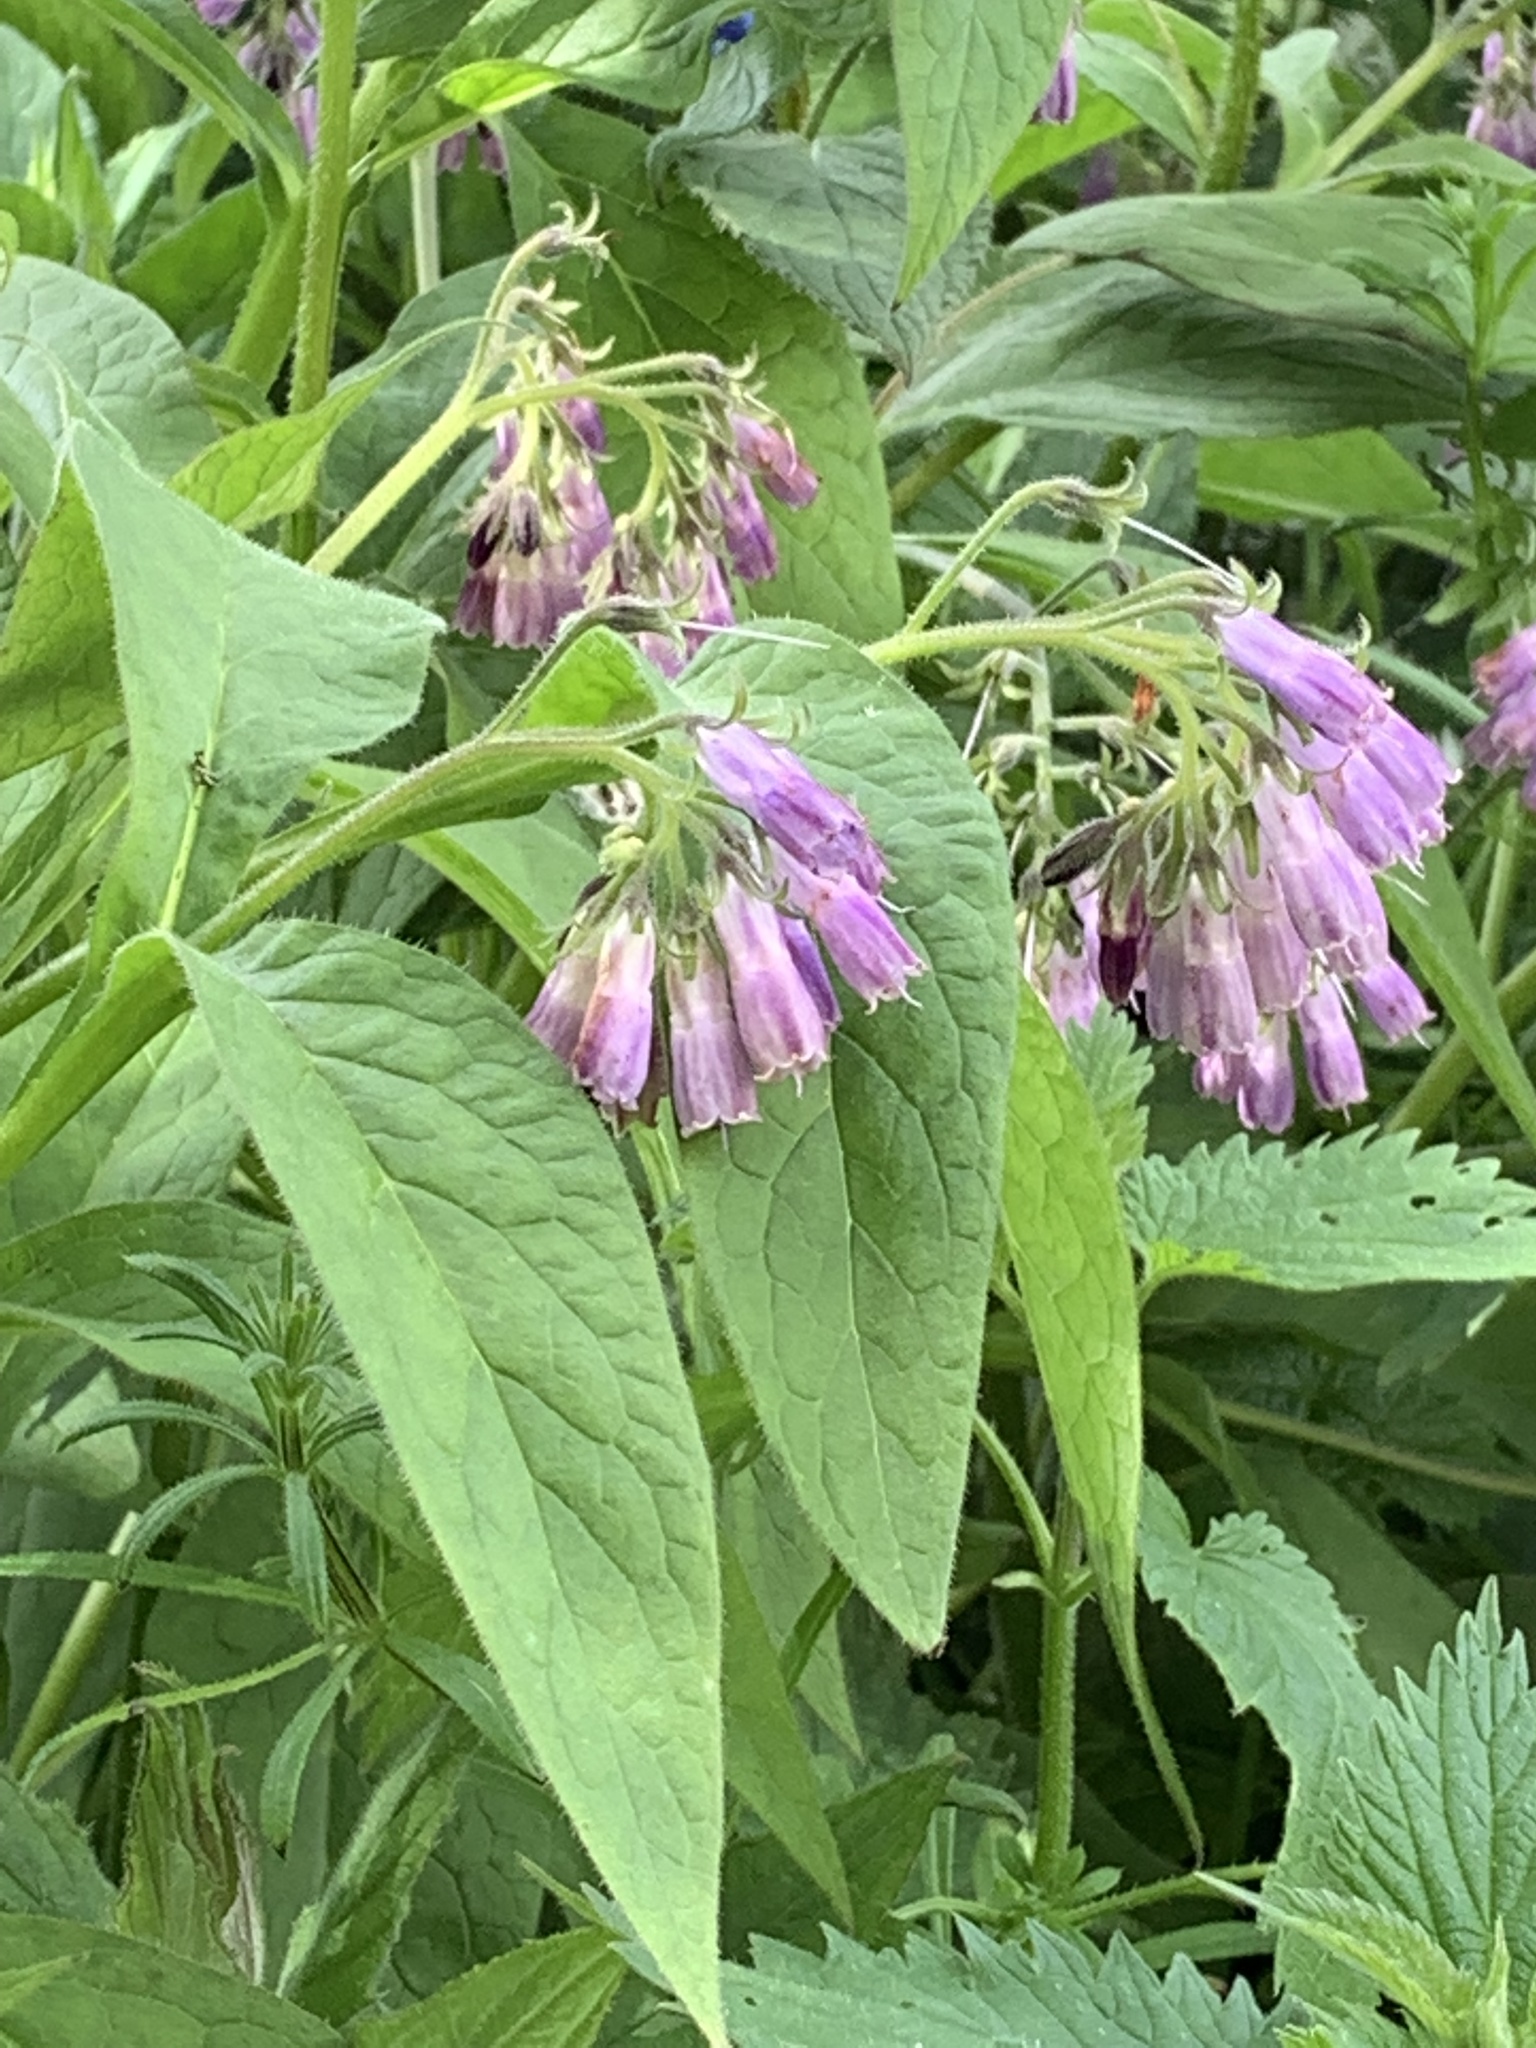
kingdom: Plantae
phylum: Tracheophyta
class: Magnoliopsida
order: Boraginales
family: Boraginaceae
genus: Symphytum
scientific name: Symphytum officinale
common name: Common comfrey
